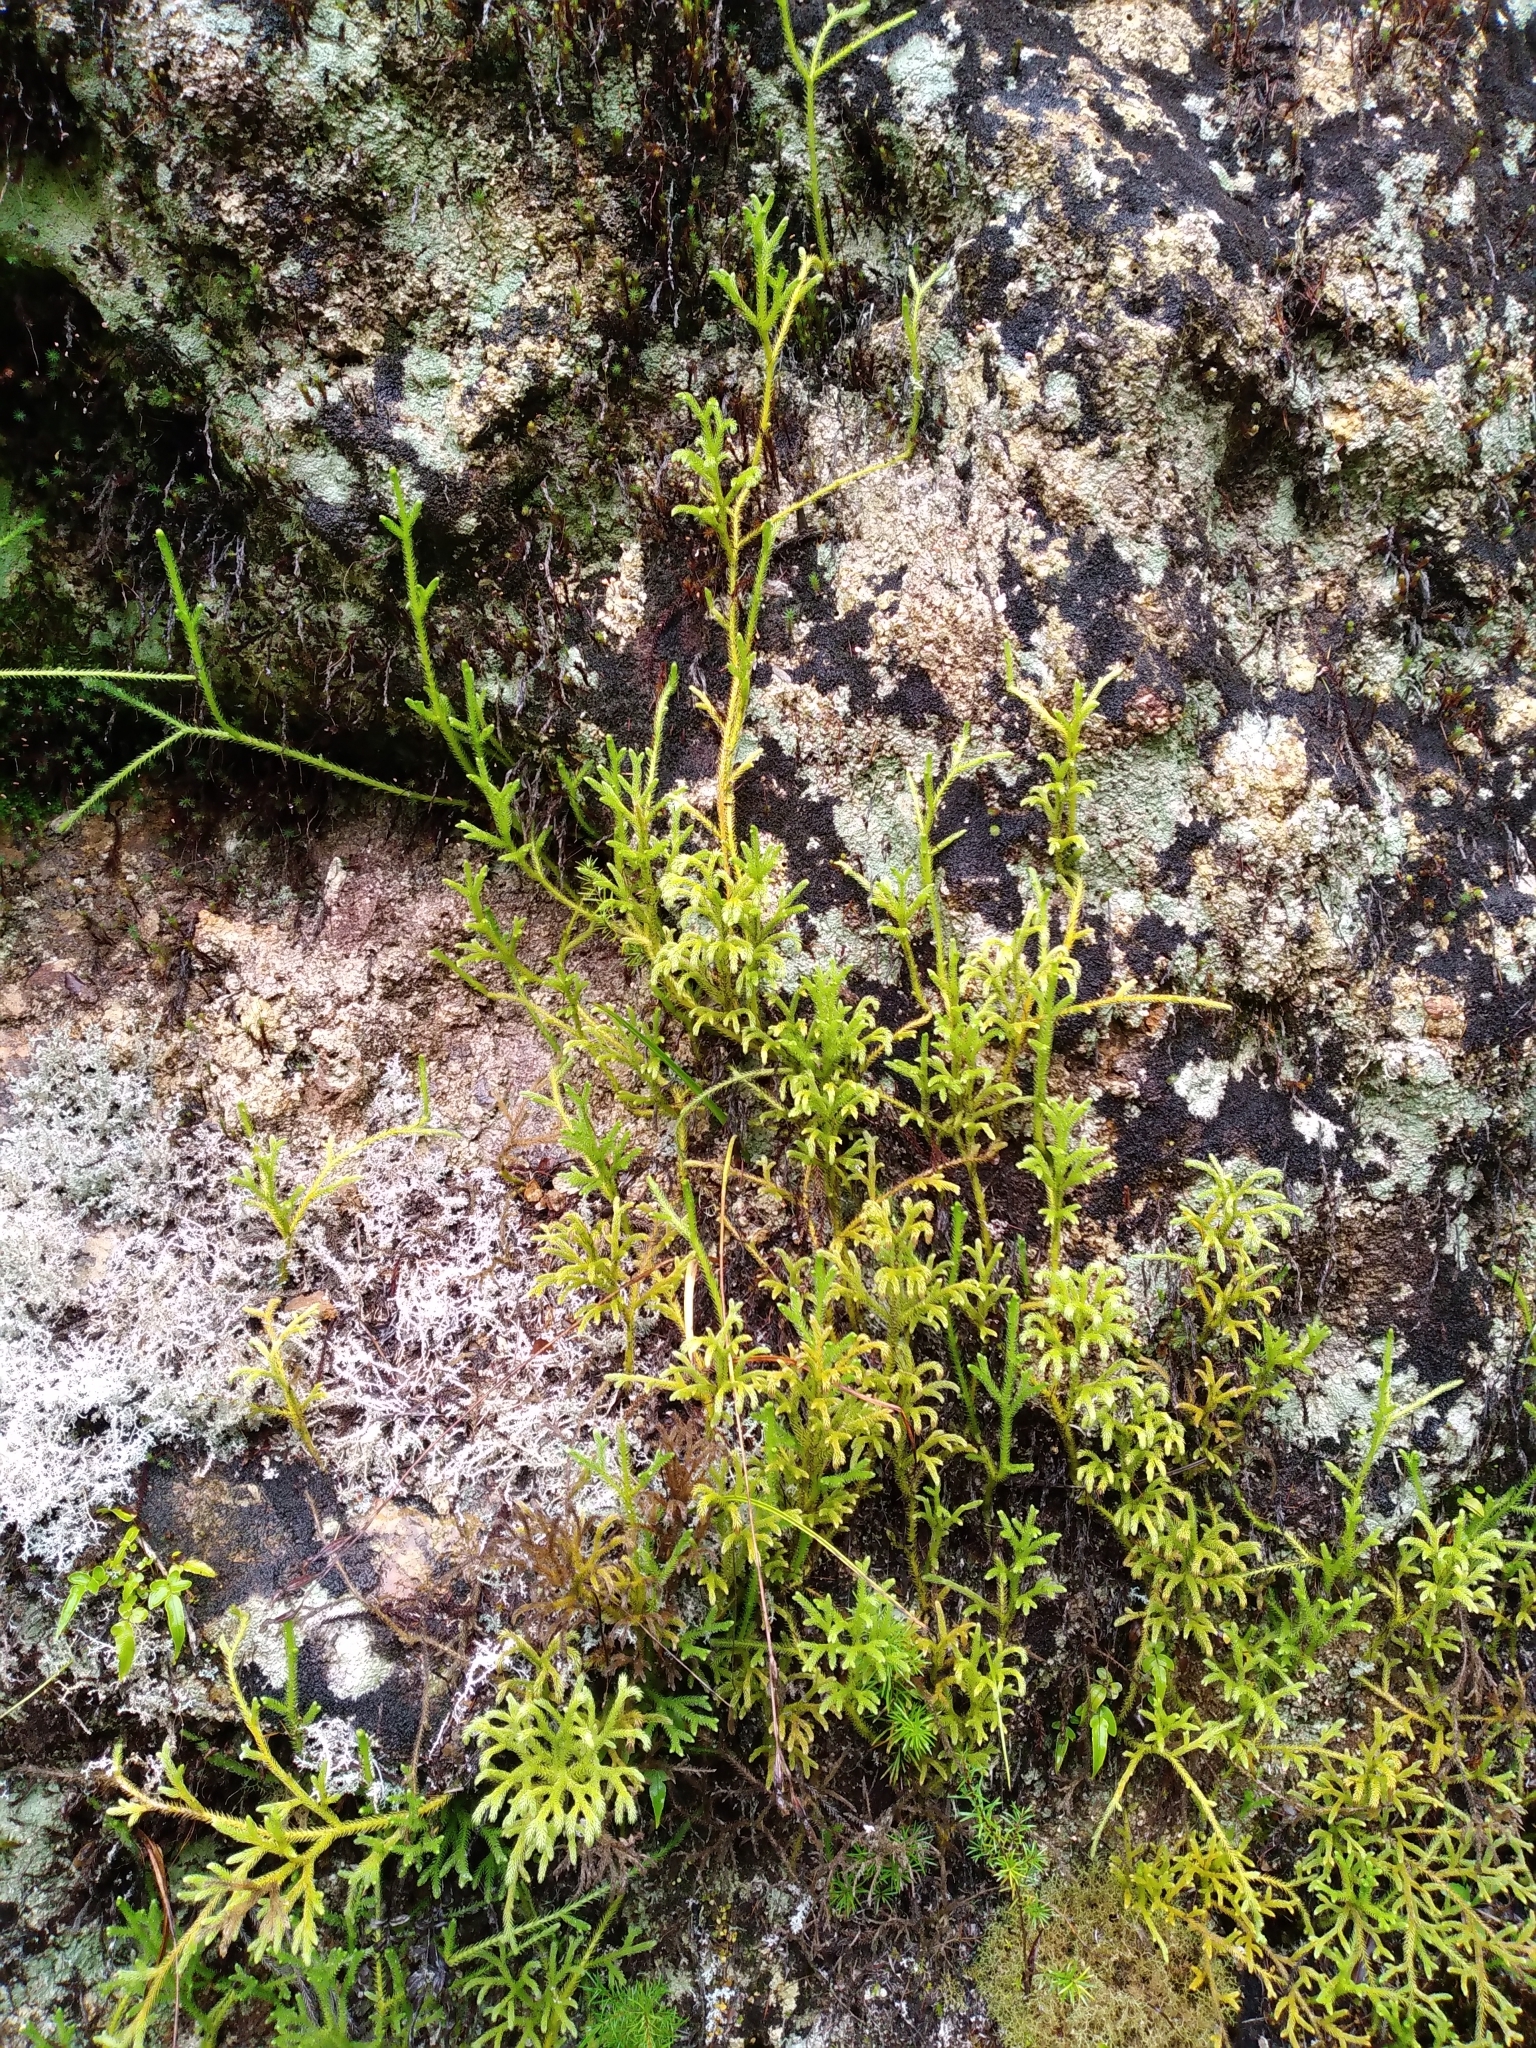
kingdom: Plantae
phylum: Tracheophyta
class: Lycopodiopsida
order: Lycopodiales
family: Lycopodiaceae
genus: Palhinhaea
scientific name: Palhinhaea cernua
